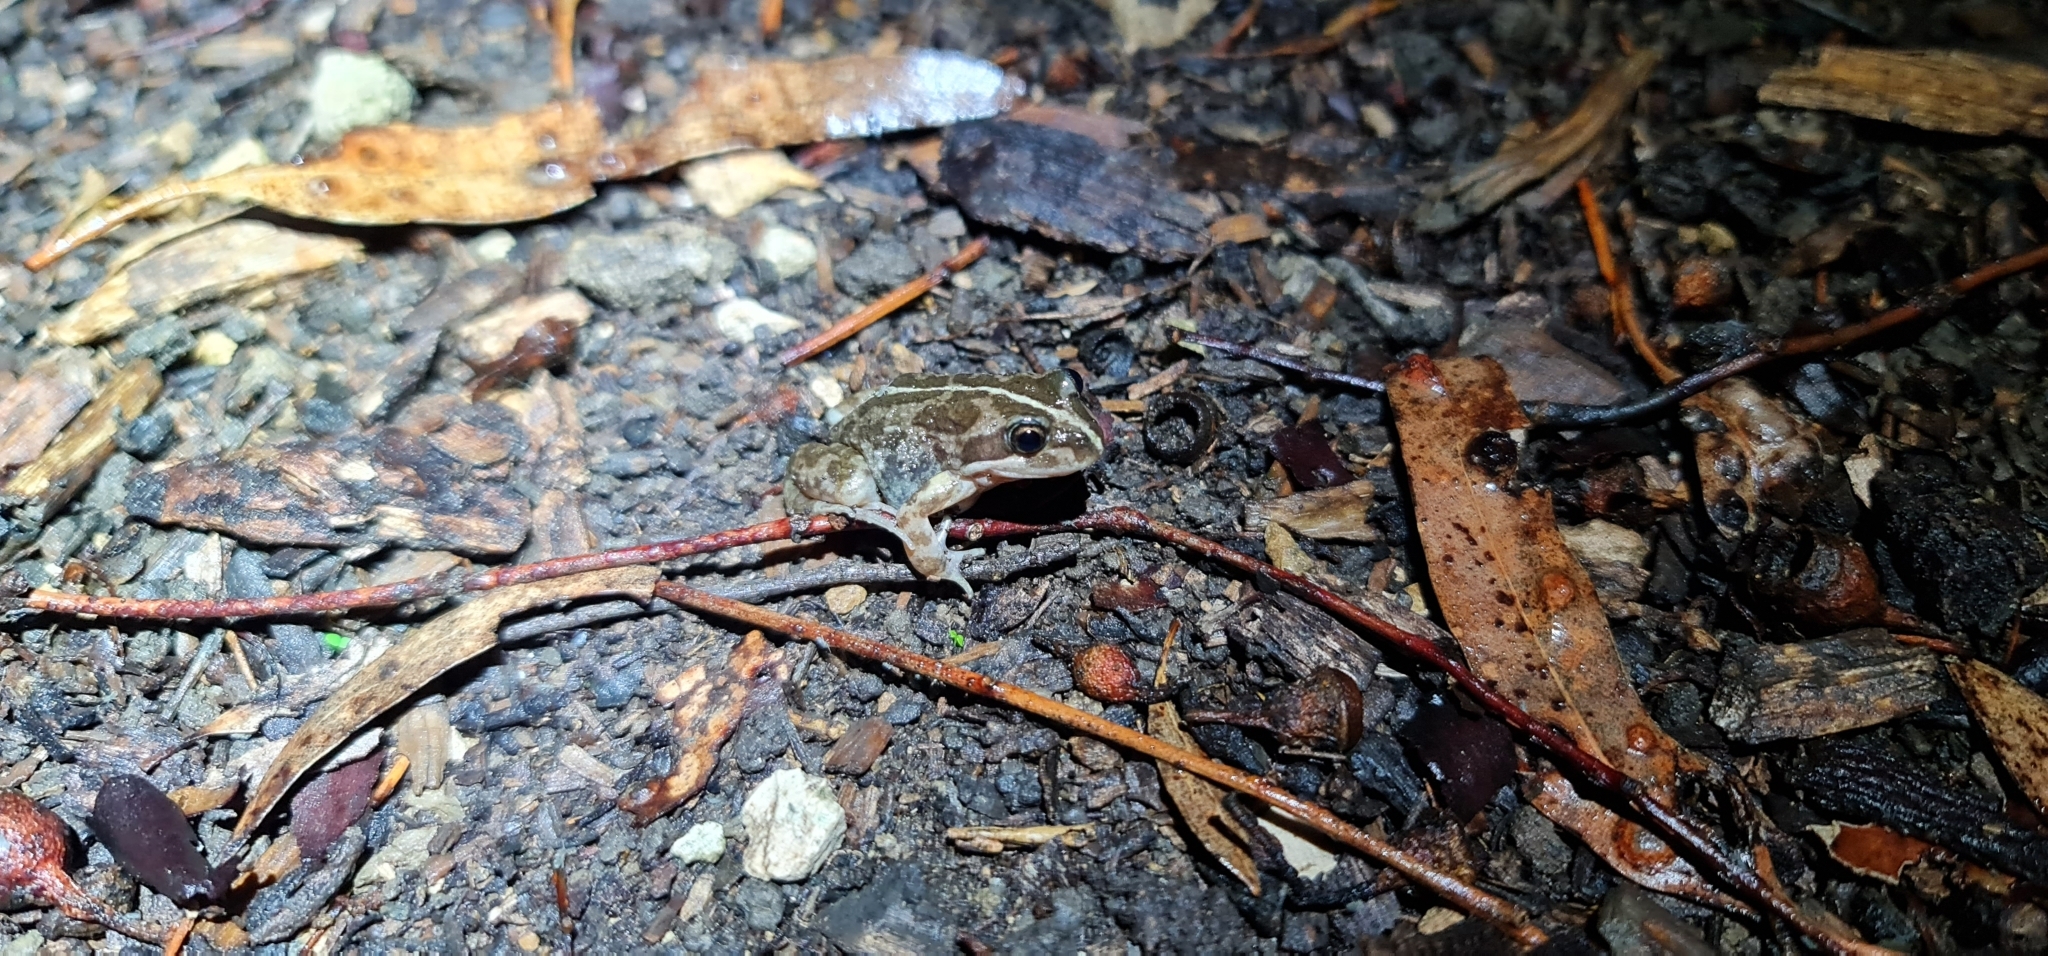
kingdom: Animalia
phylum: Chordata
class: Amphibia
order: Anura
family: Limnodynastidae
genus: Limnodynastes
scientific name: Limnodynastes tasmaniensis
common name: Spotted marsh frog
